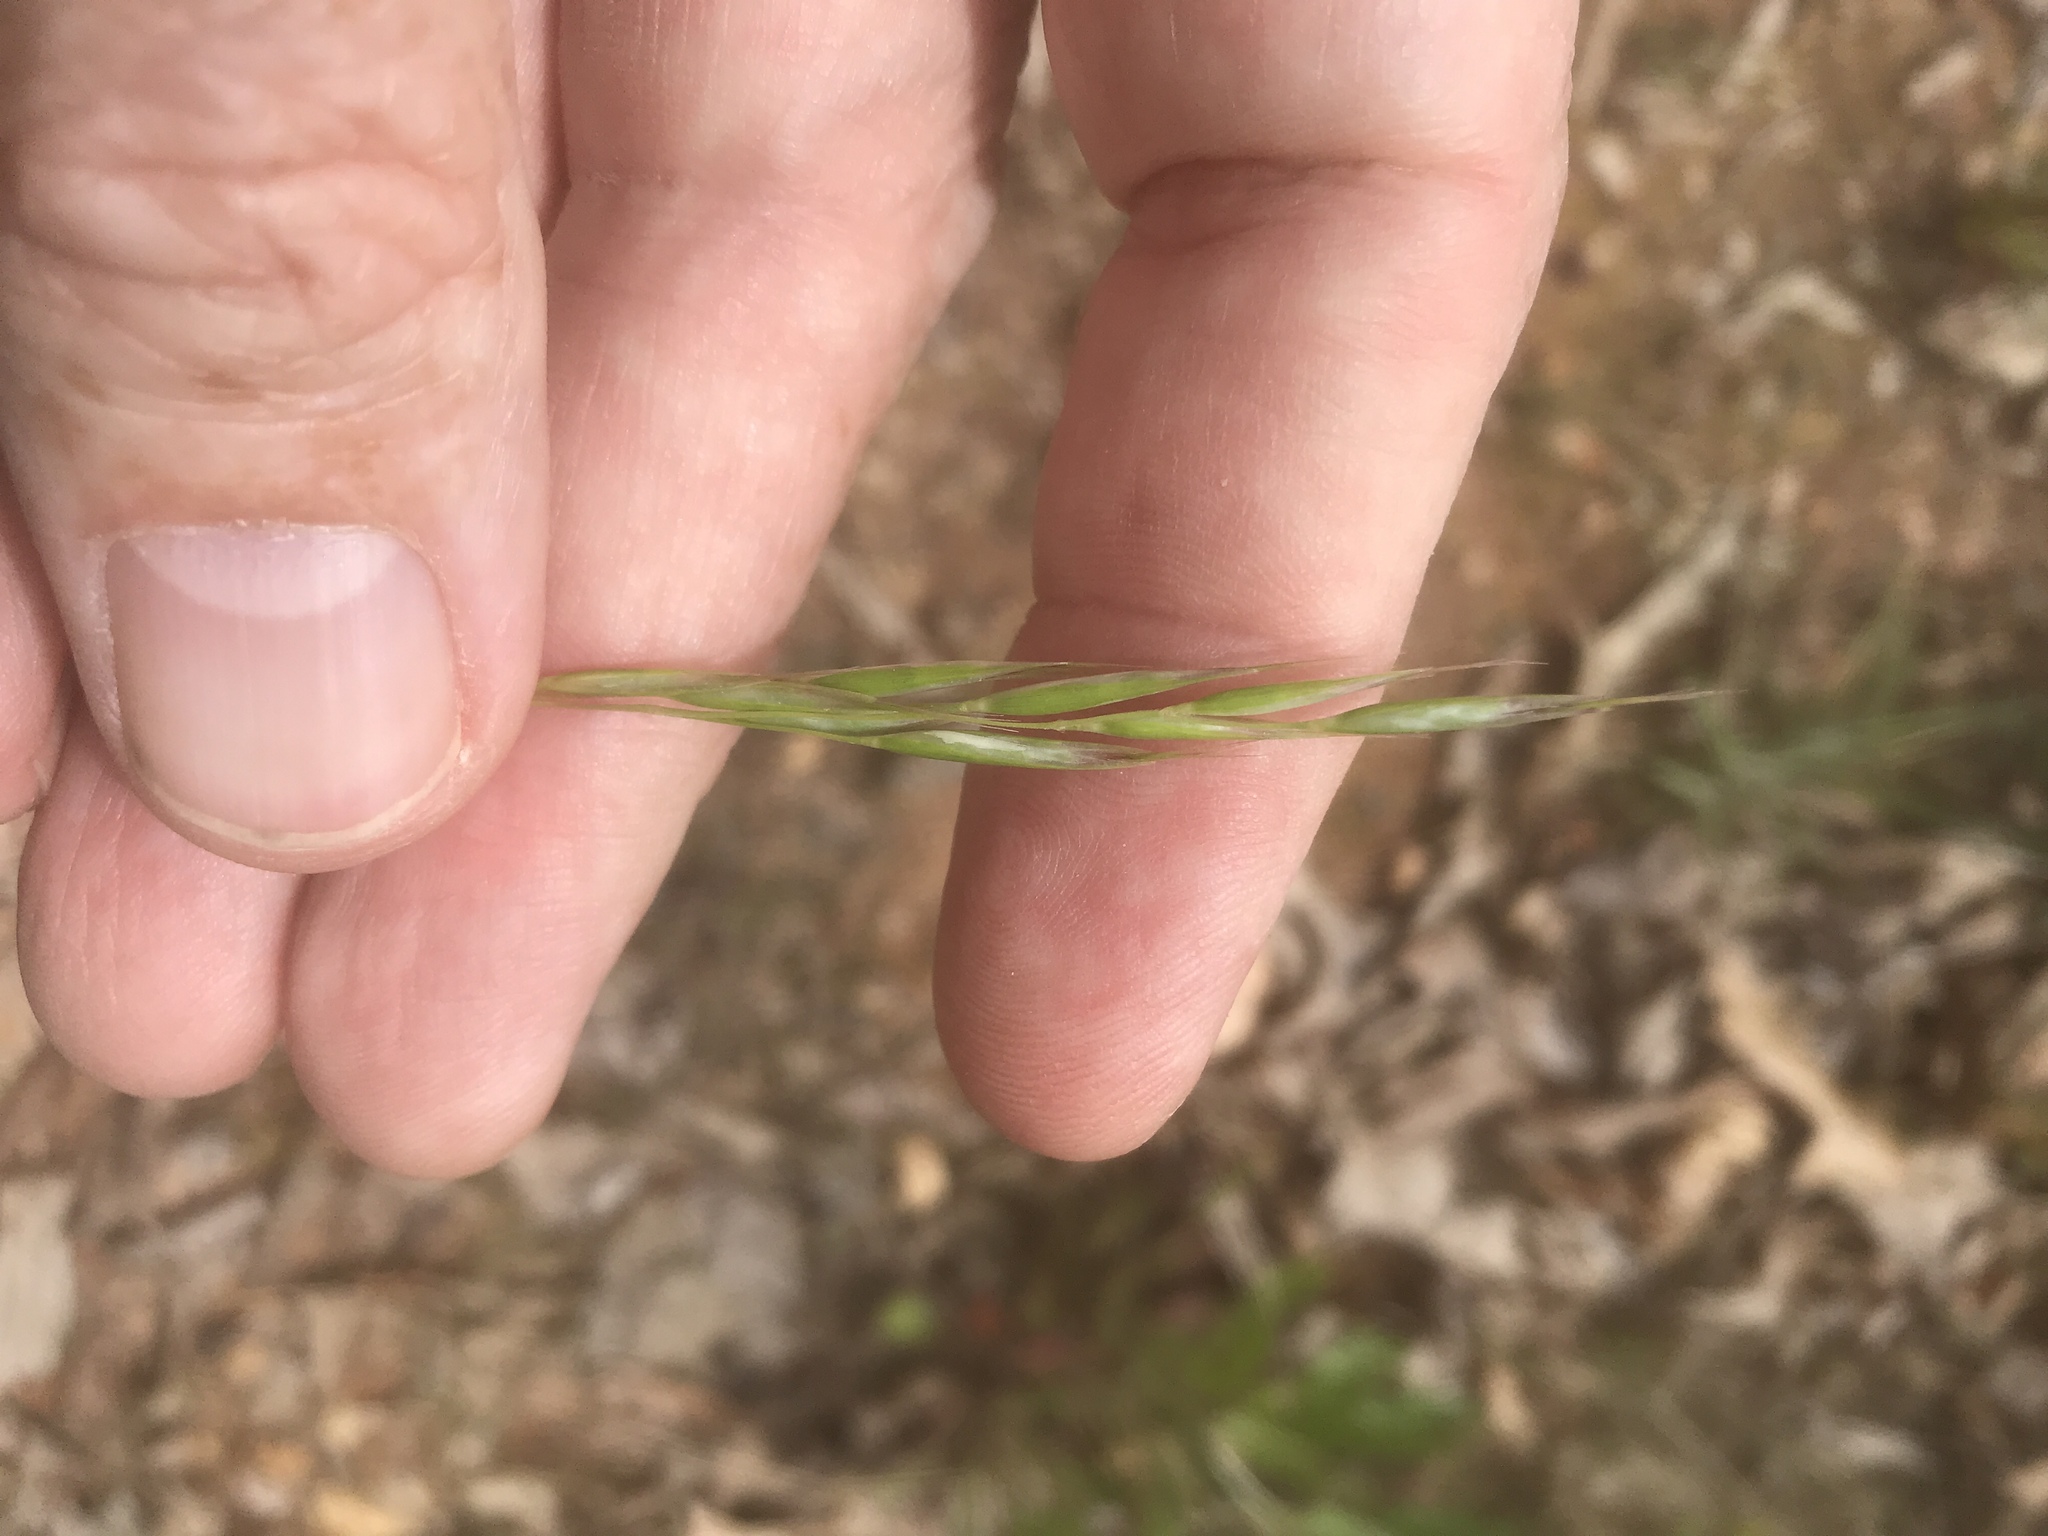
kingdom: Plantae
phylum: Tracheophyta
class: Liliopsida
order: Poales
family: Poaceae
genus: Danthonia
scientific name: Danthonia sericea
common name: Downy danthonia
